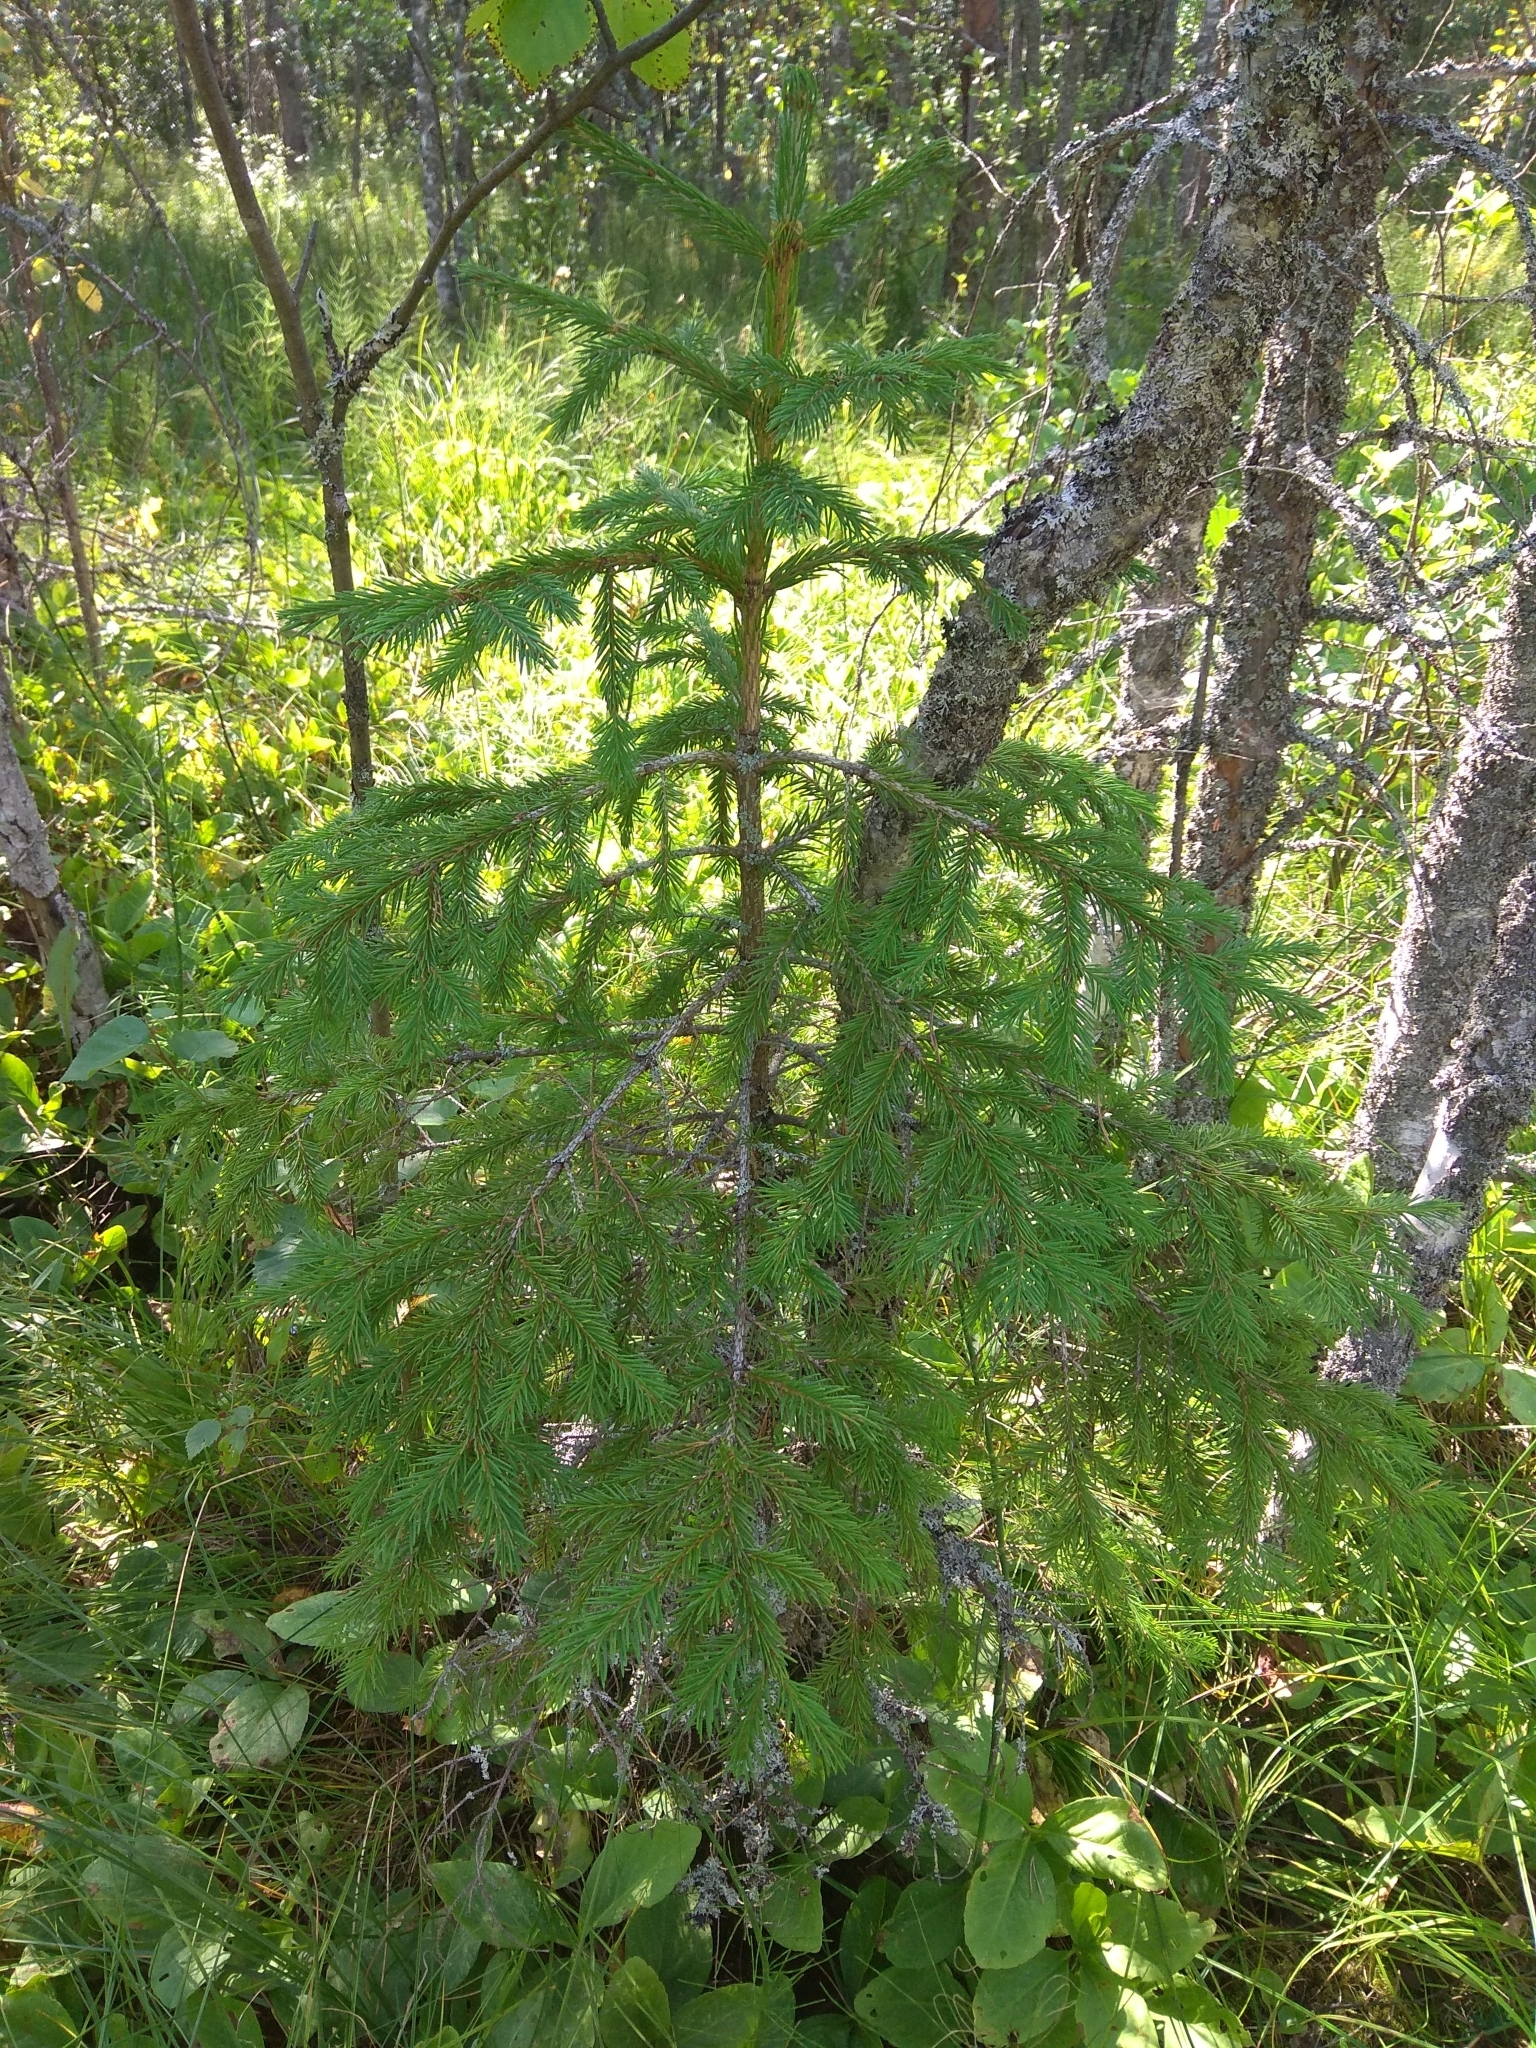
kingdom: Plantae
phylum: Tracheophyta
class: Pinopsida
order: Pinales
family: Pinaceae
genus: Picea
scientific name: Picea abies
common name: Norway spruce
